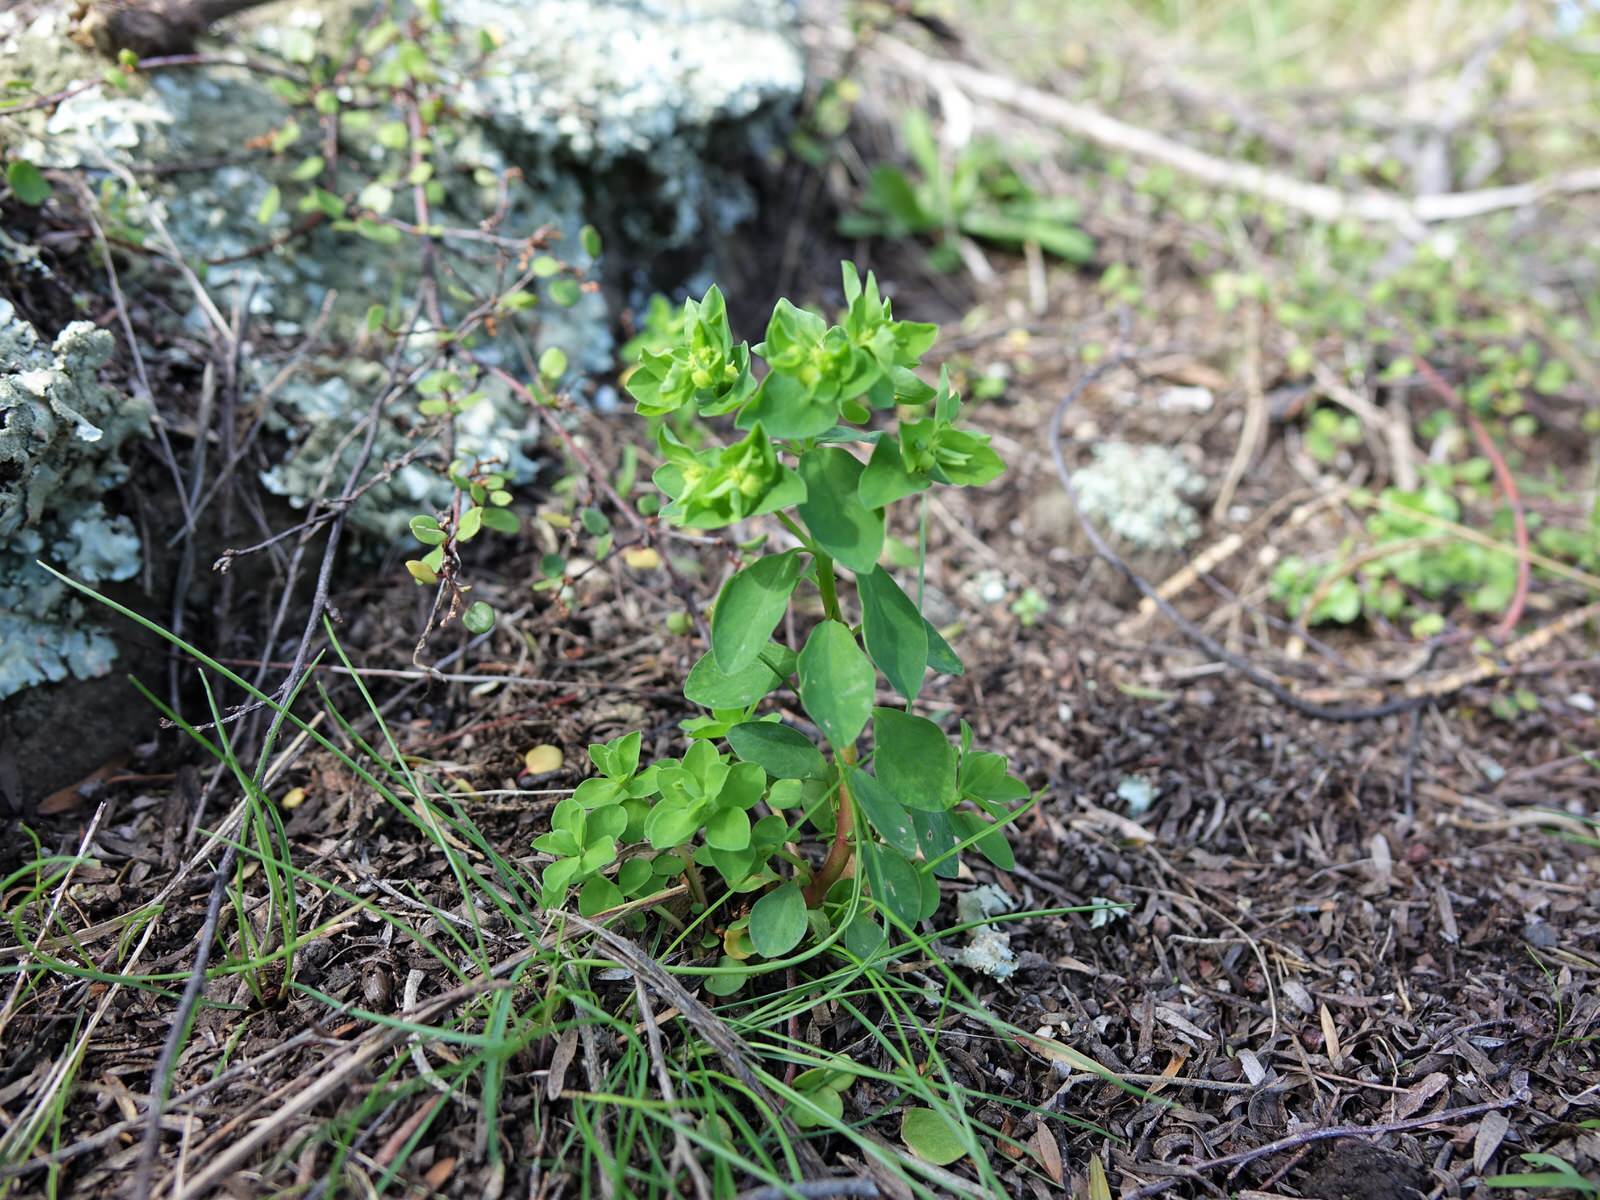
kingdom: Plantae
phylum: Tracheophyta
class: Magnoliopsida
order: Malpighiales
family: Euphorbiaceae
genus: Euphorbia
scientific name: Euphorbia peplus
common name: Petty spurge
